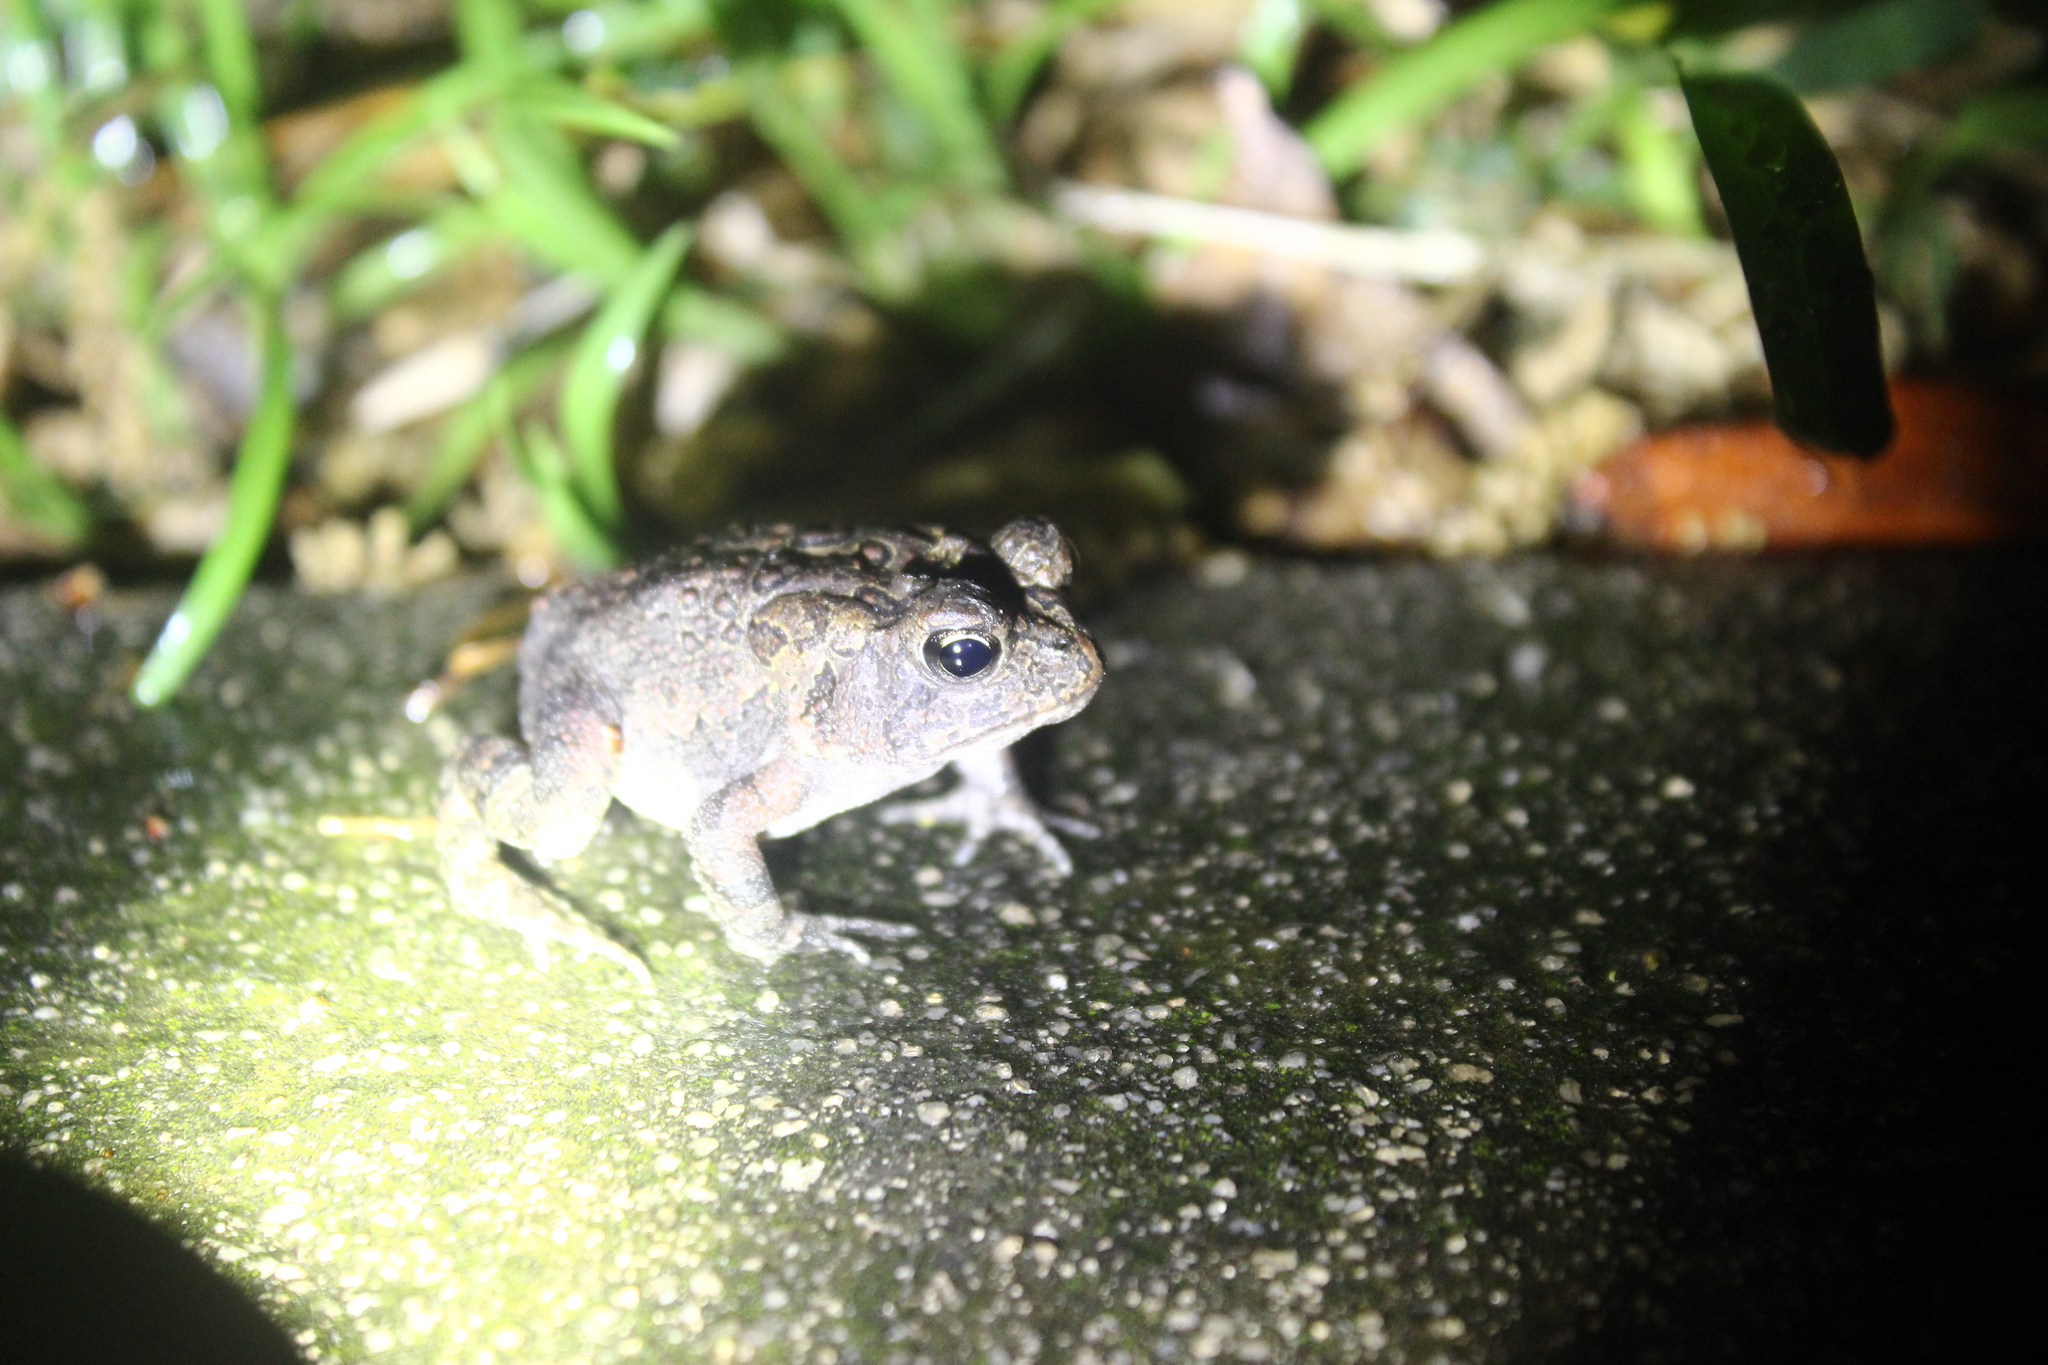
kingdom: Animalia
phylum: Chordata
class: Amphibia
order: Anura
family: Bufonidae
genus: Anaxyrus
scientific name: Anaxyrus terrestris
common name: Southern toad
